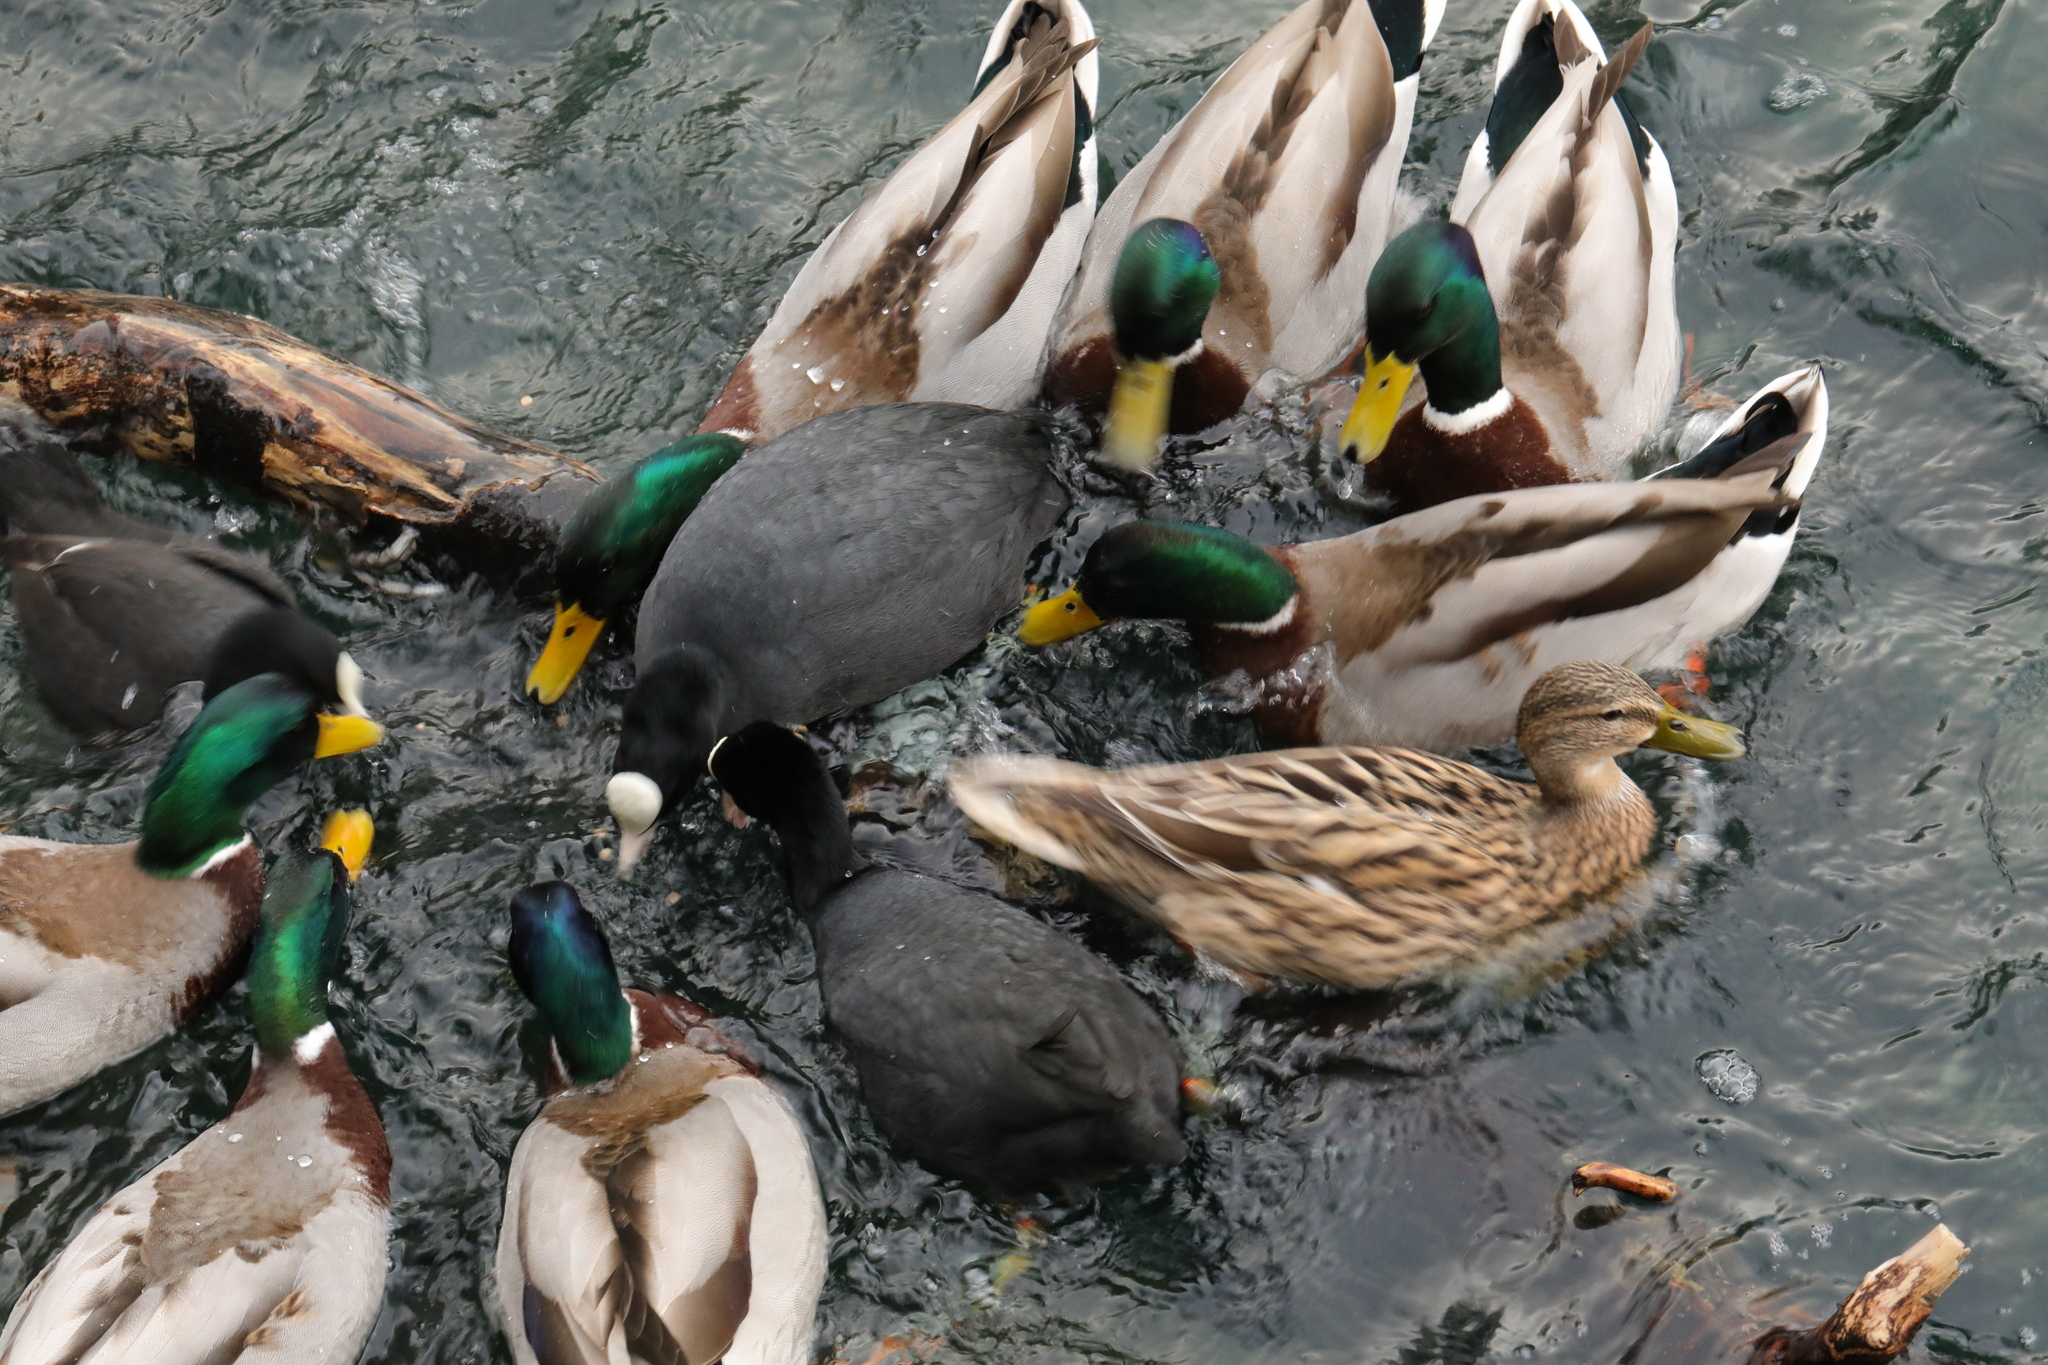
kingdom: Animalia
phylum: Chordata
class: Aves
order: Gruiformes
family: Rallidae
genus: Fulica
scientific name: Fulica atra
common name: Eurasian coot
